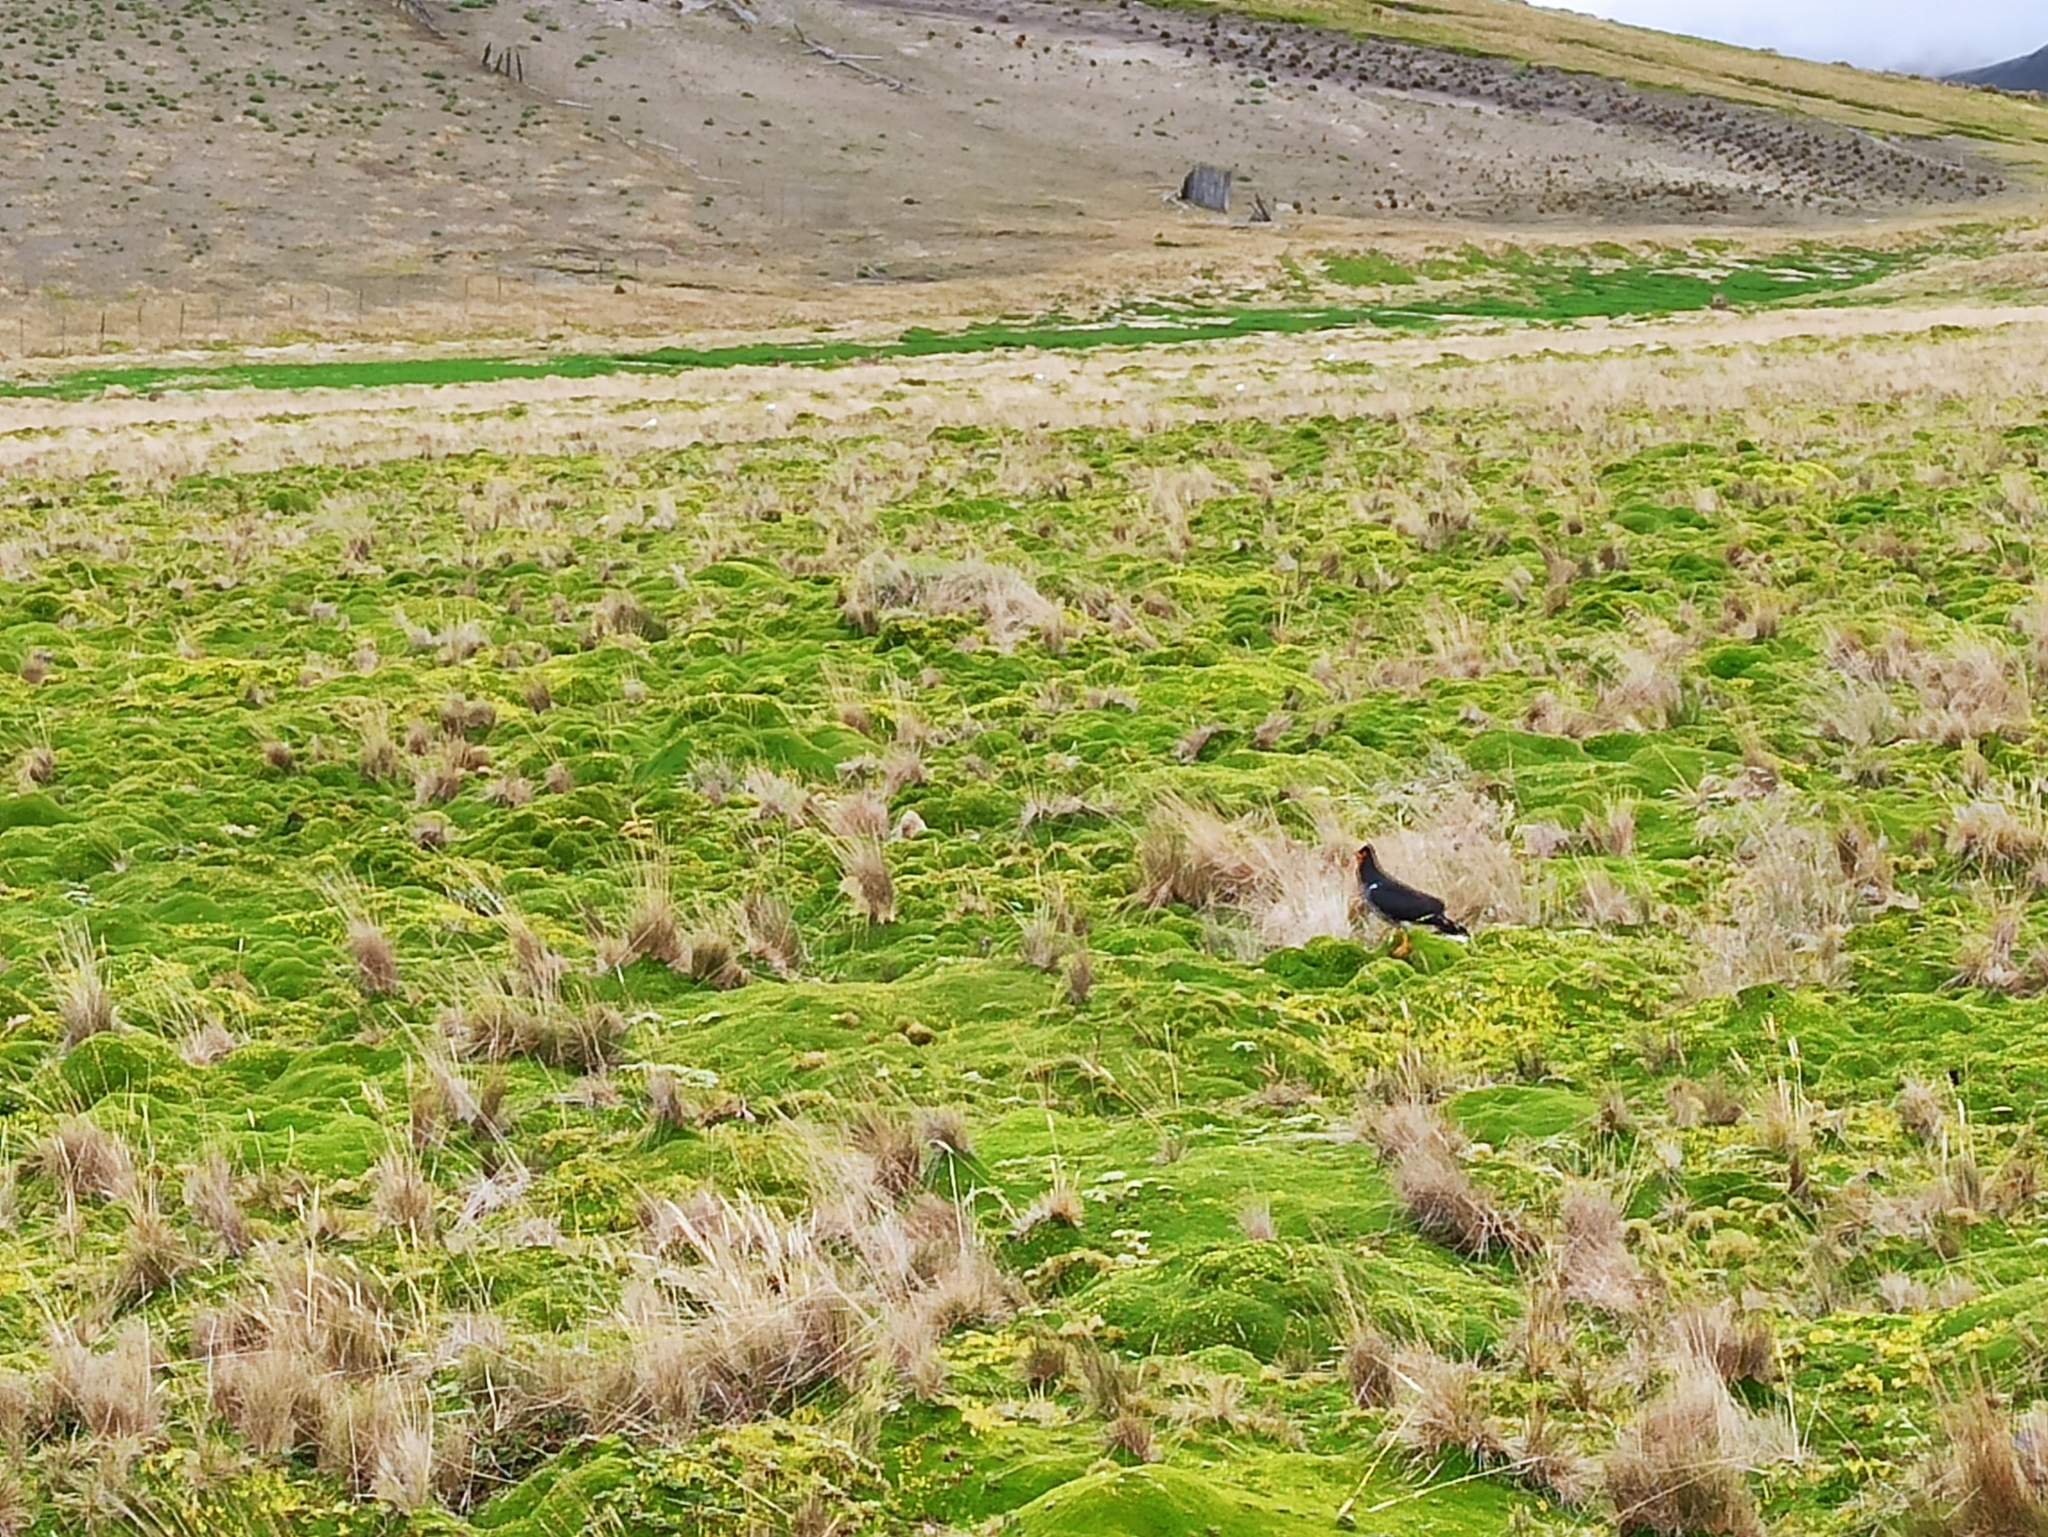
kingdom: Animalia
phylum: Chordata
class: Aves
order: Falconiformes
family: Falconidae
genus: Daptrius
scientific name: Daptrius
